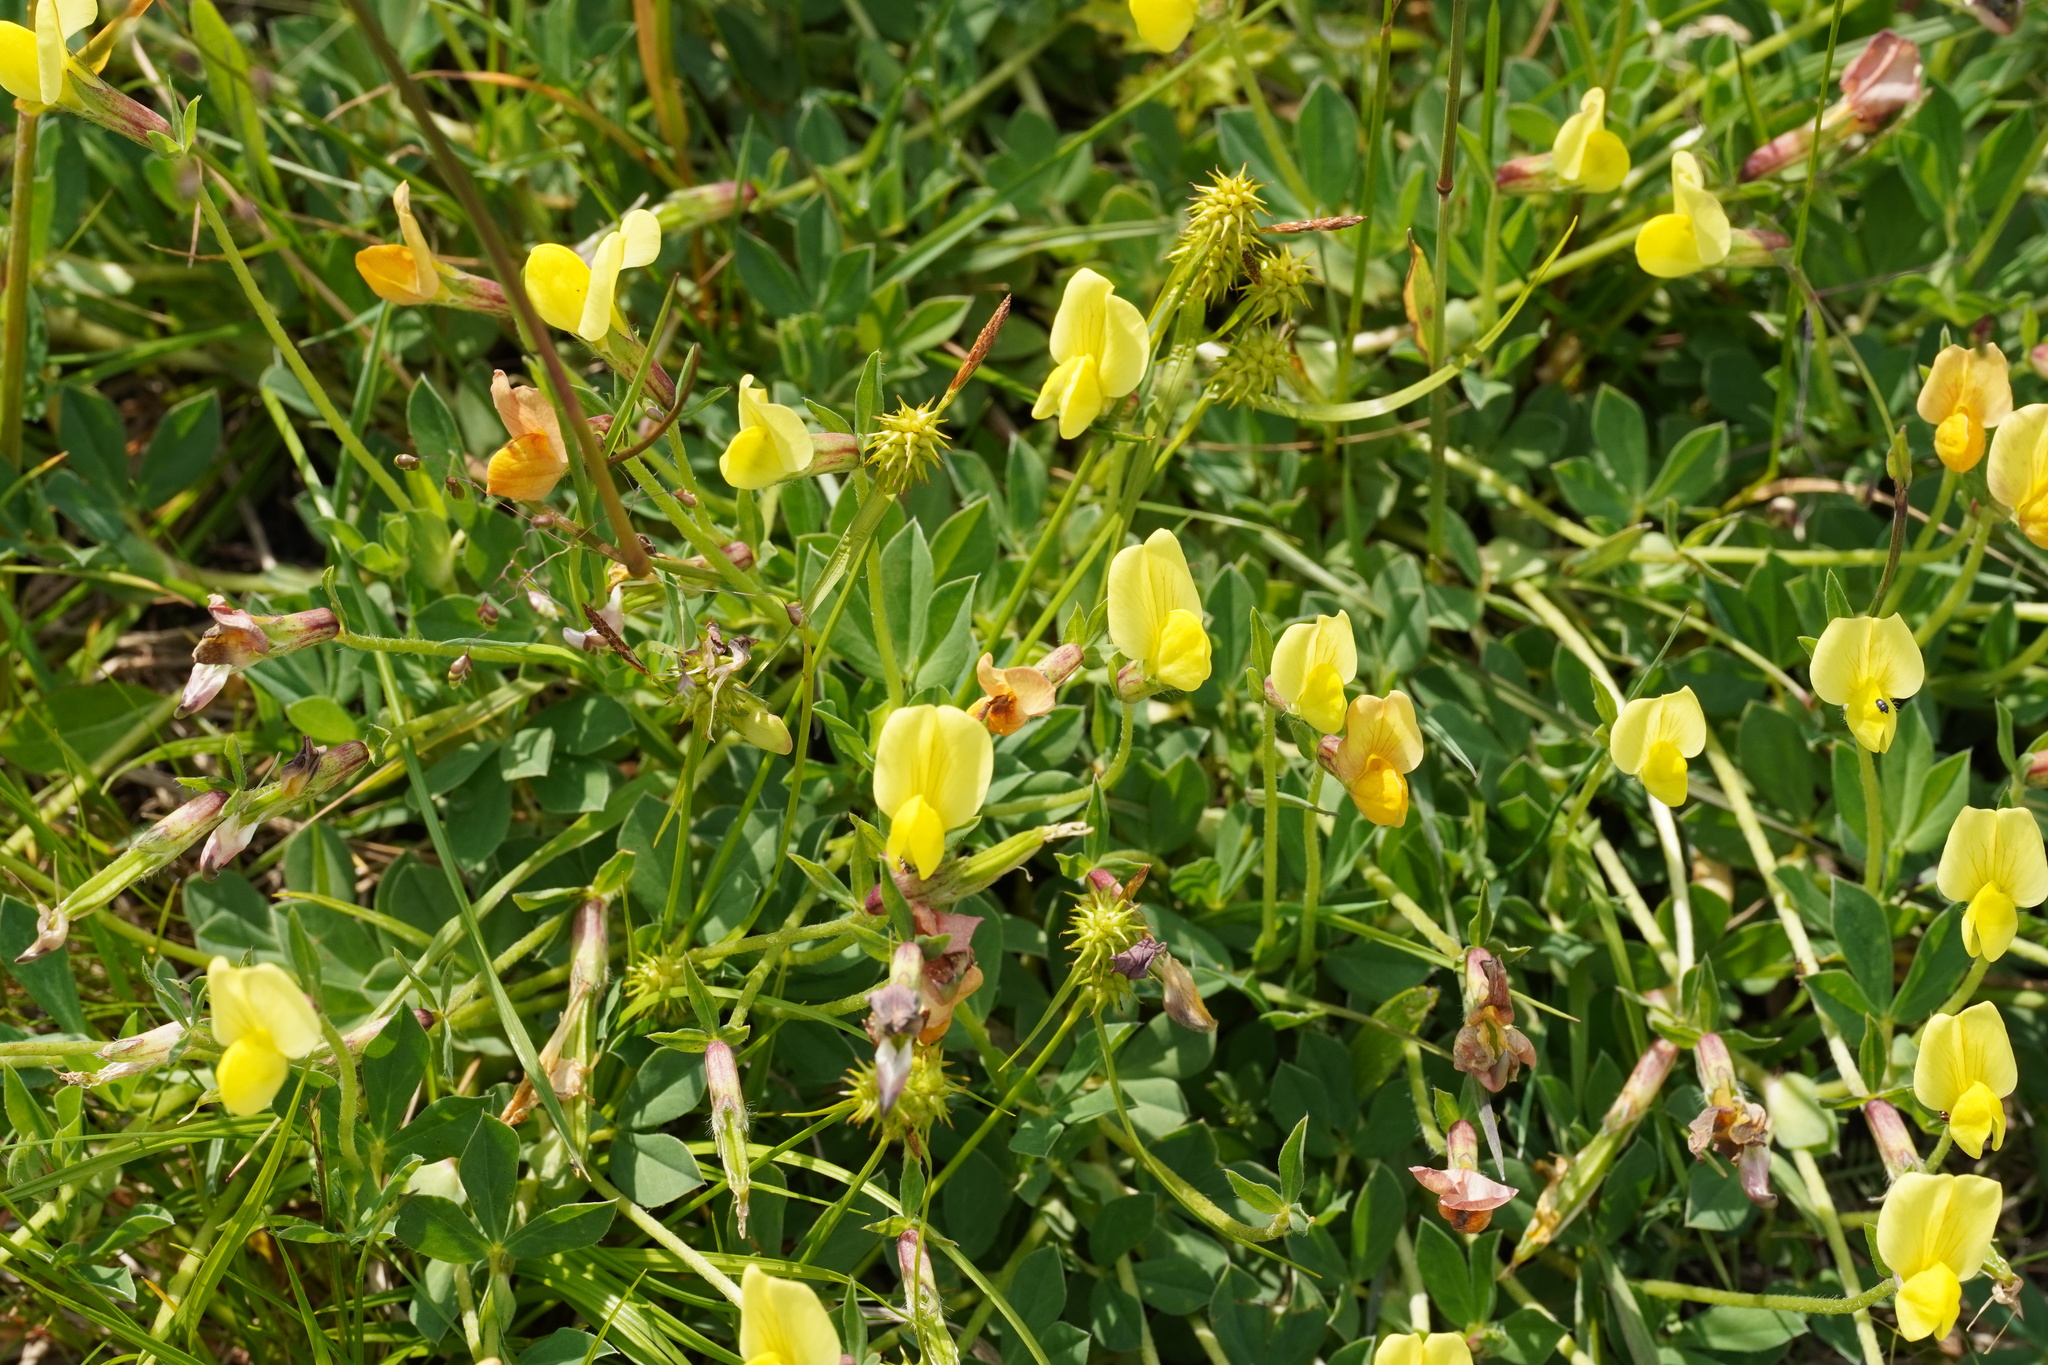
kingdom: Plantae
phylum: Tracheophyta
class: Magnoliopsida
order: Fabales
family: Fabaceae
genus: Lotus
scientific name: Lotus maritimus
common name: Dragon's-teeth
